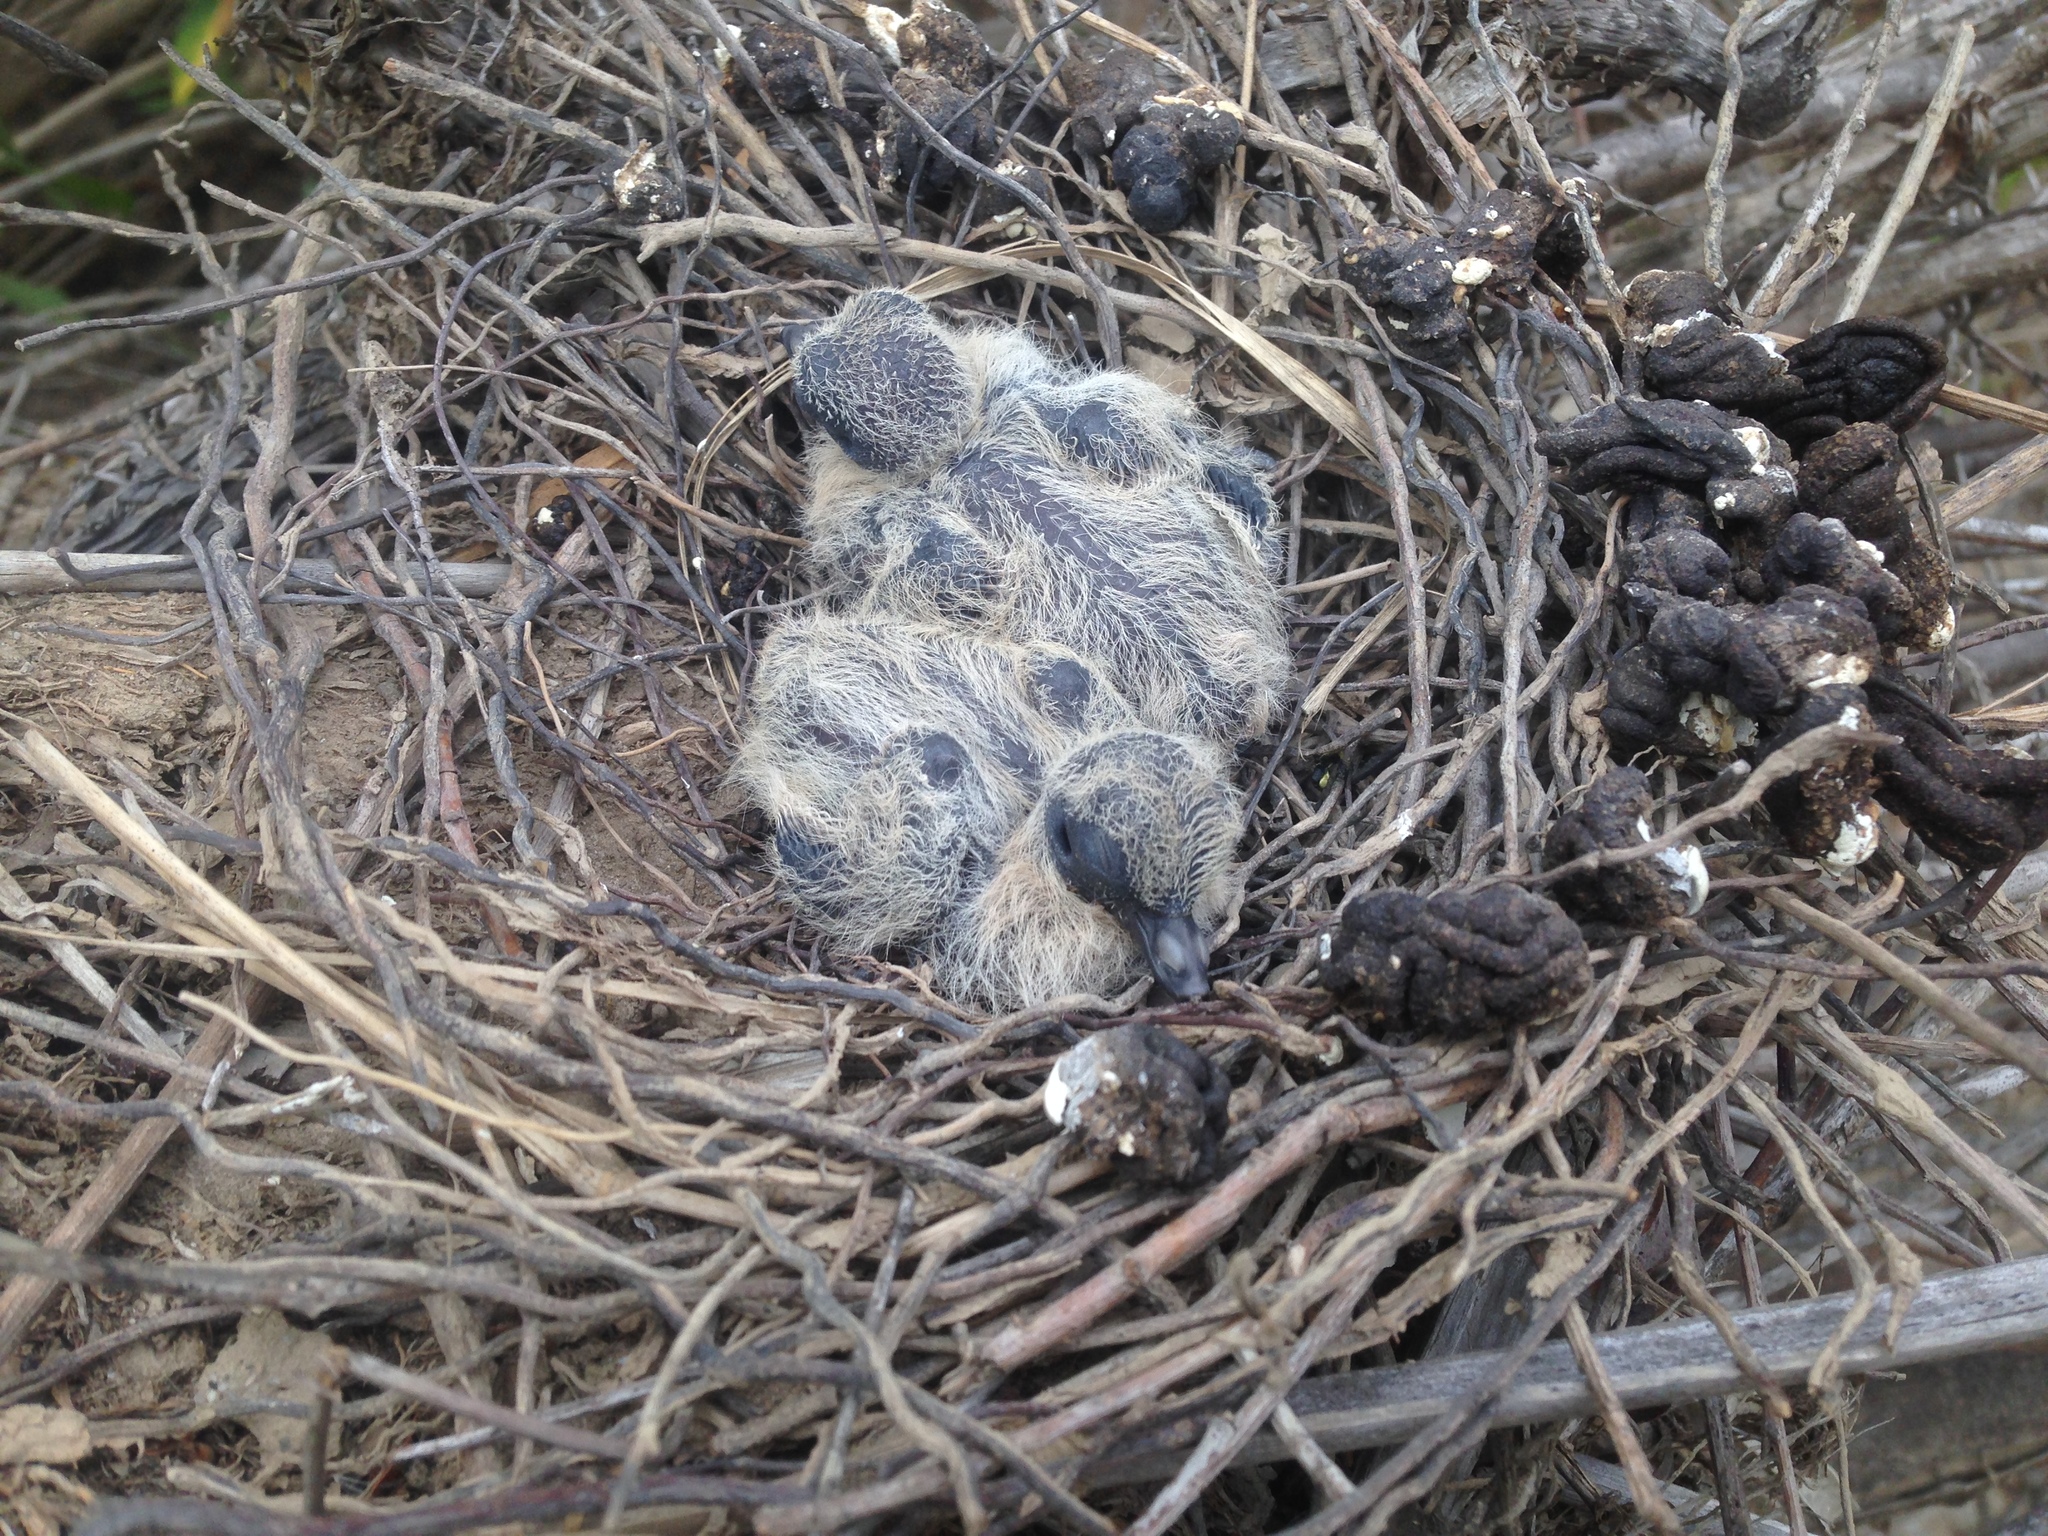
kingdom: Animalia
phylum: Chordata
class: Aves
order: Columbiformes
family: Columbidae
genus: Zenaida
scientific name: Zenaida macroura
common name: Mourning dove
